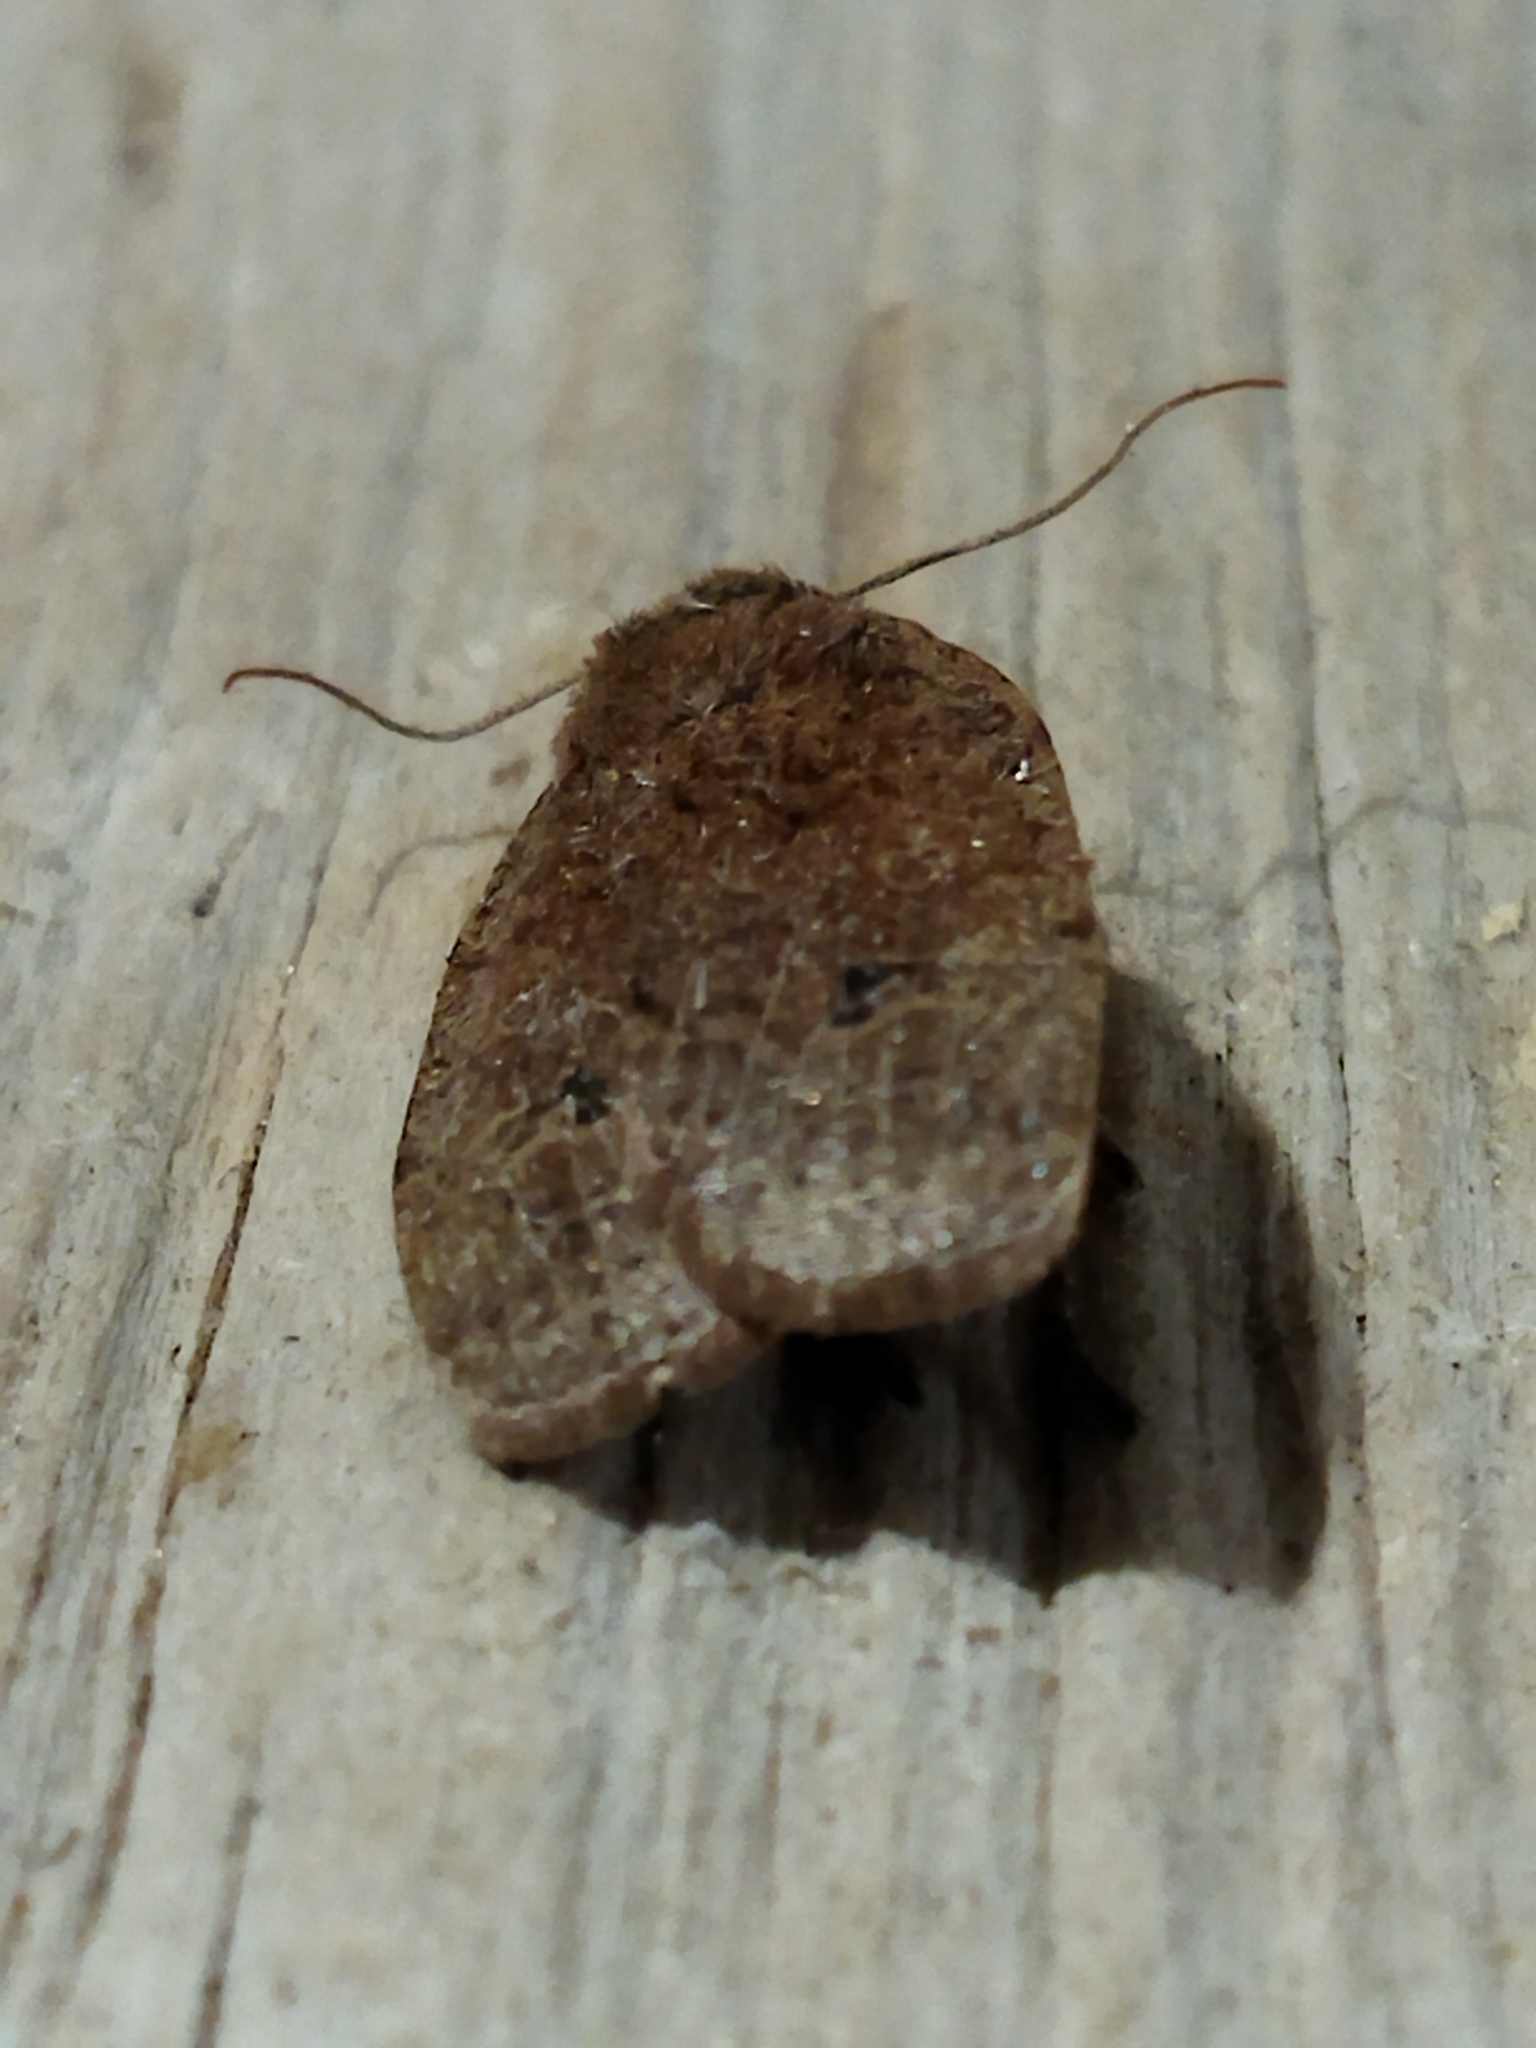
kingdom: Animalia
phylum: Arthropoda
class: Insecta
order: Lepidoptera
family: Noctuidae
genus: Conistra
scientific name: Conistra ragusae
